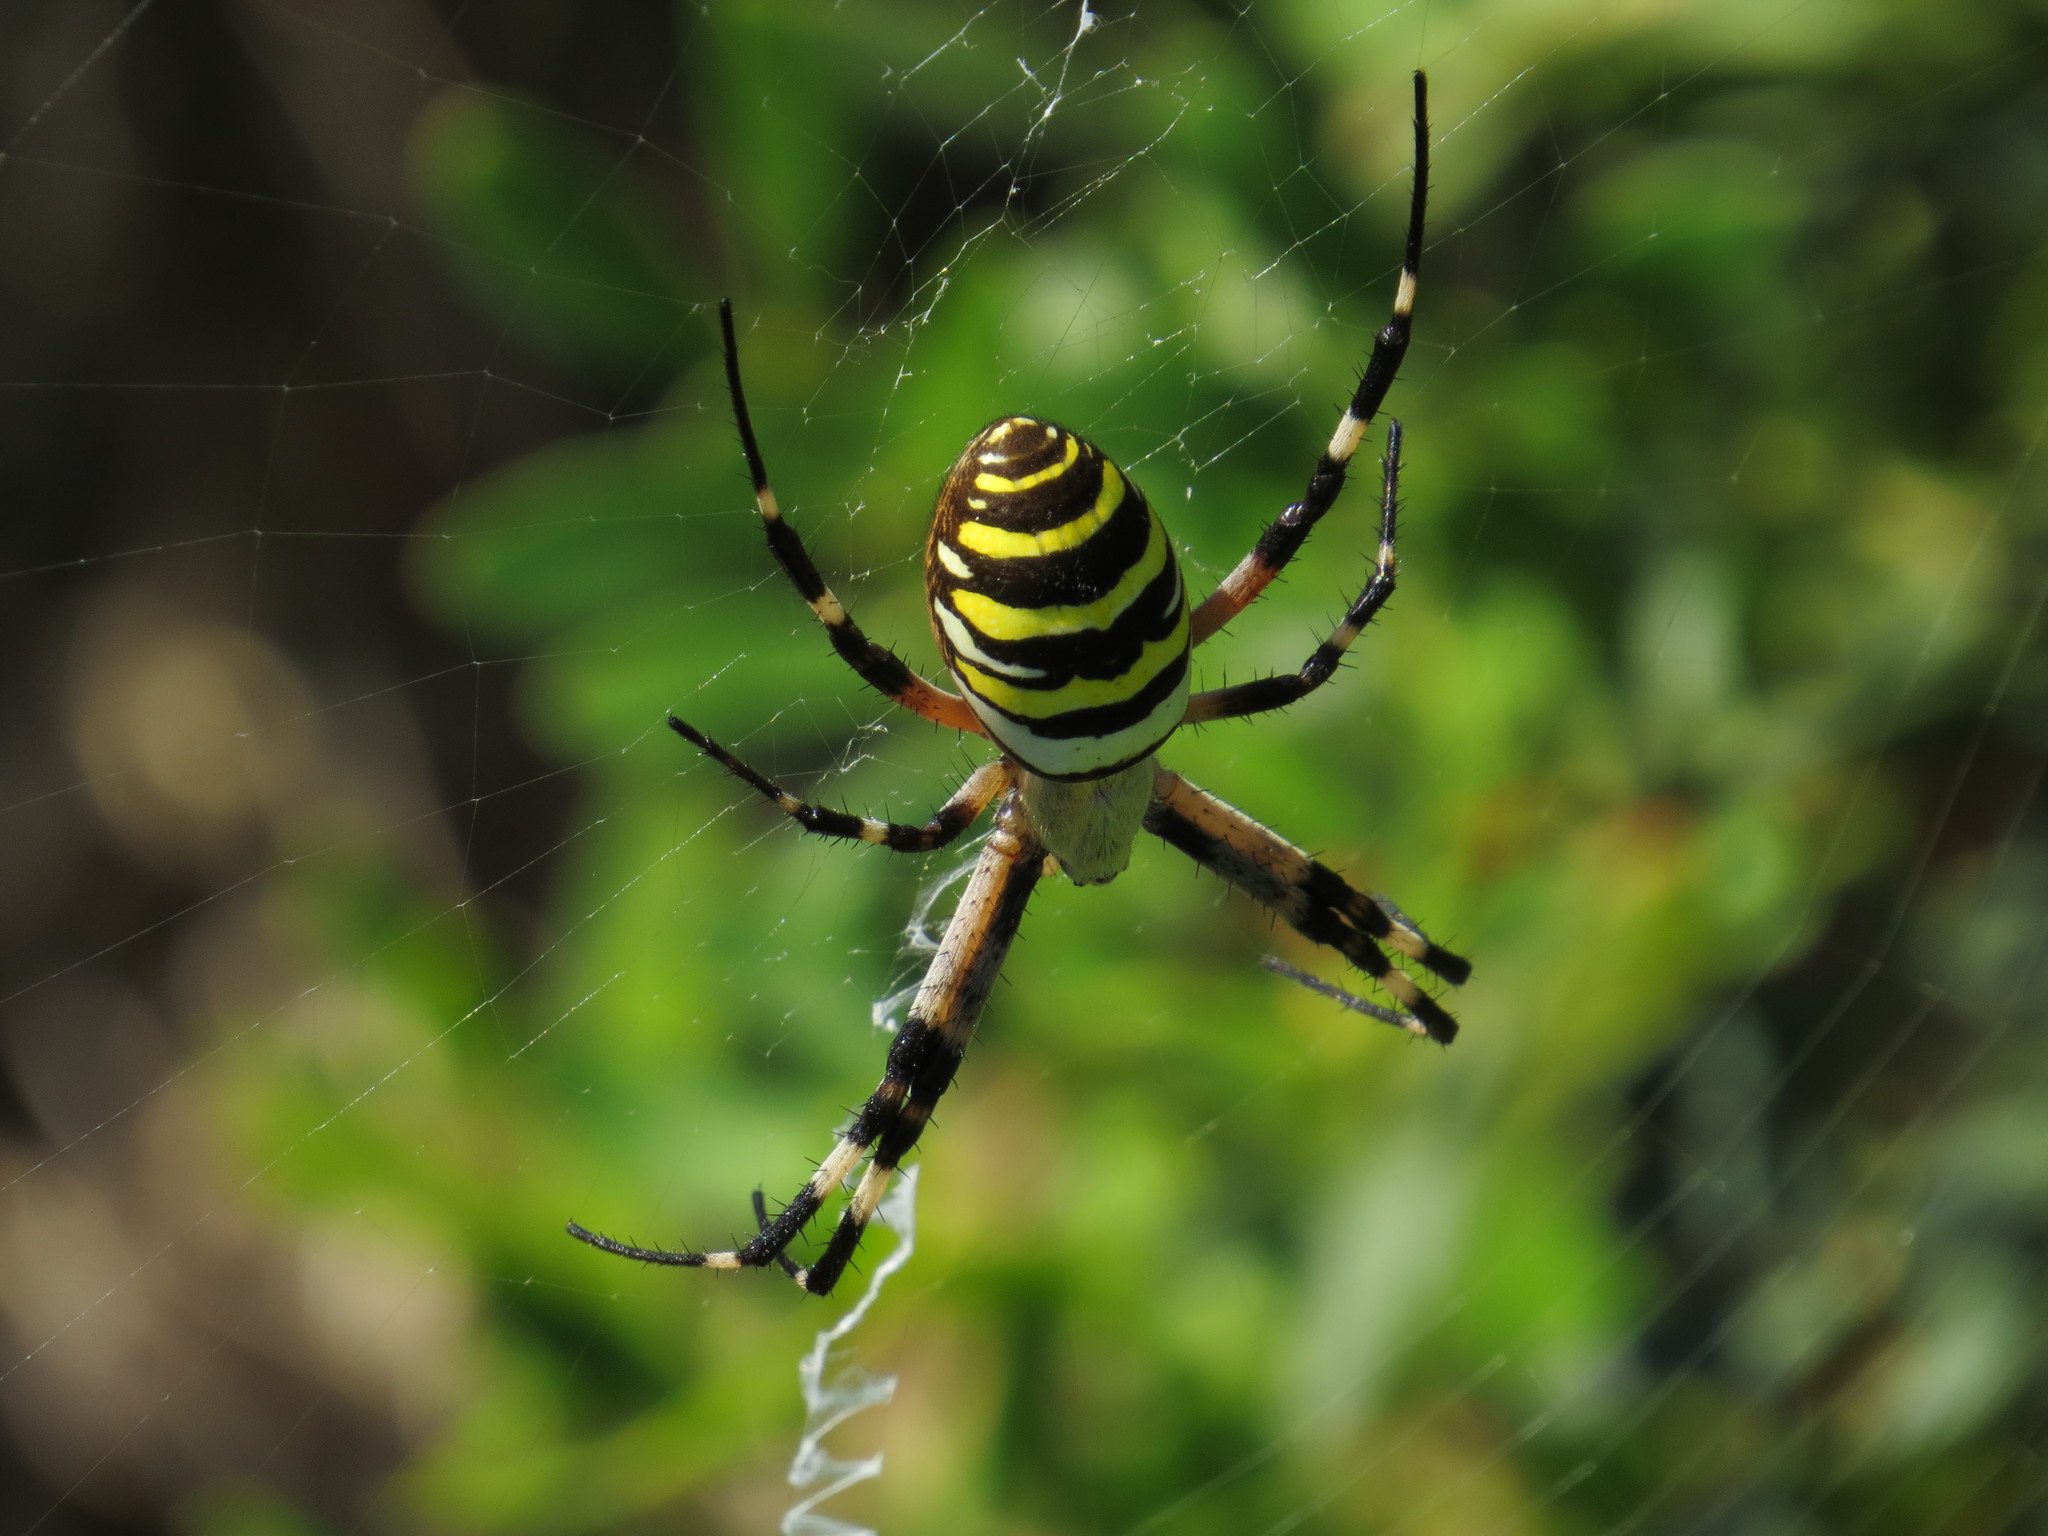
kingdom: Animalia
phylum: Arthropoda
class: Arachnida
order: Araneae
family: Araneidae
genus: Argiope
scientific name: Argiope bruennichi
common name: Wasp spider
